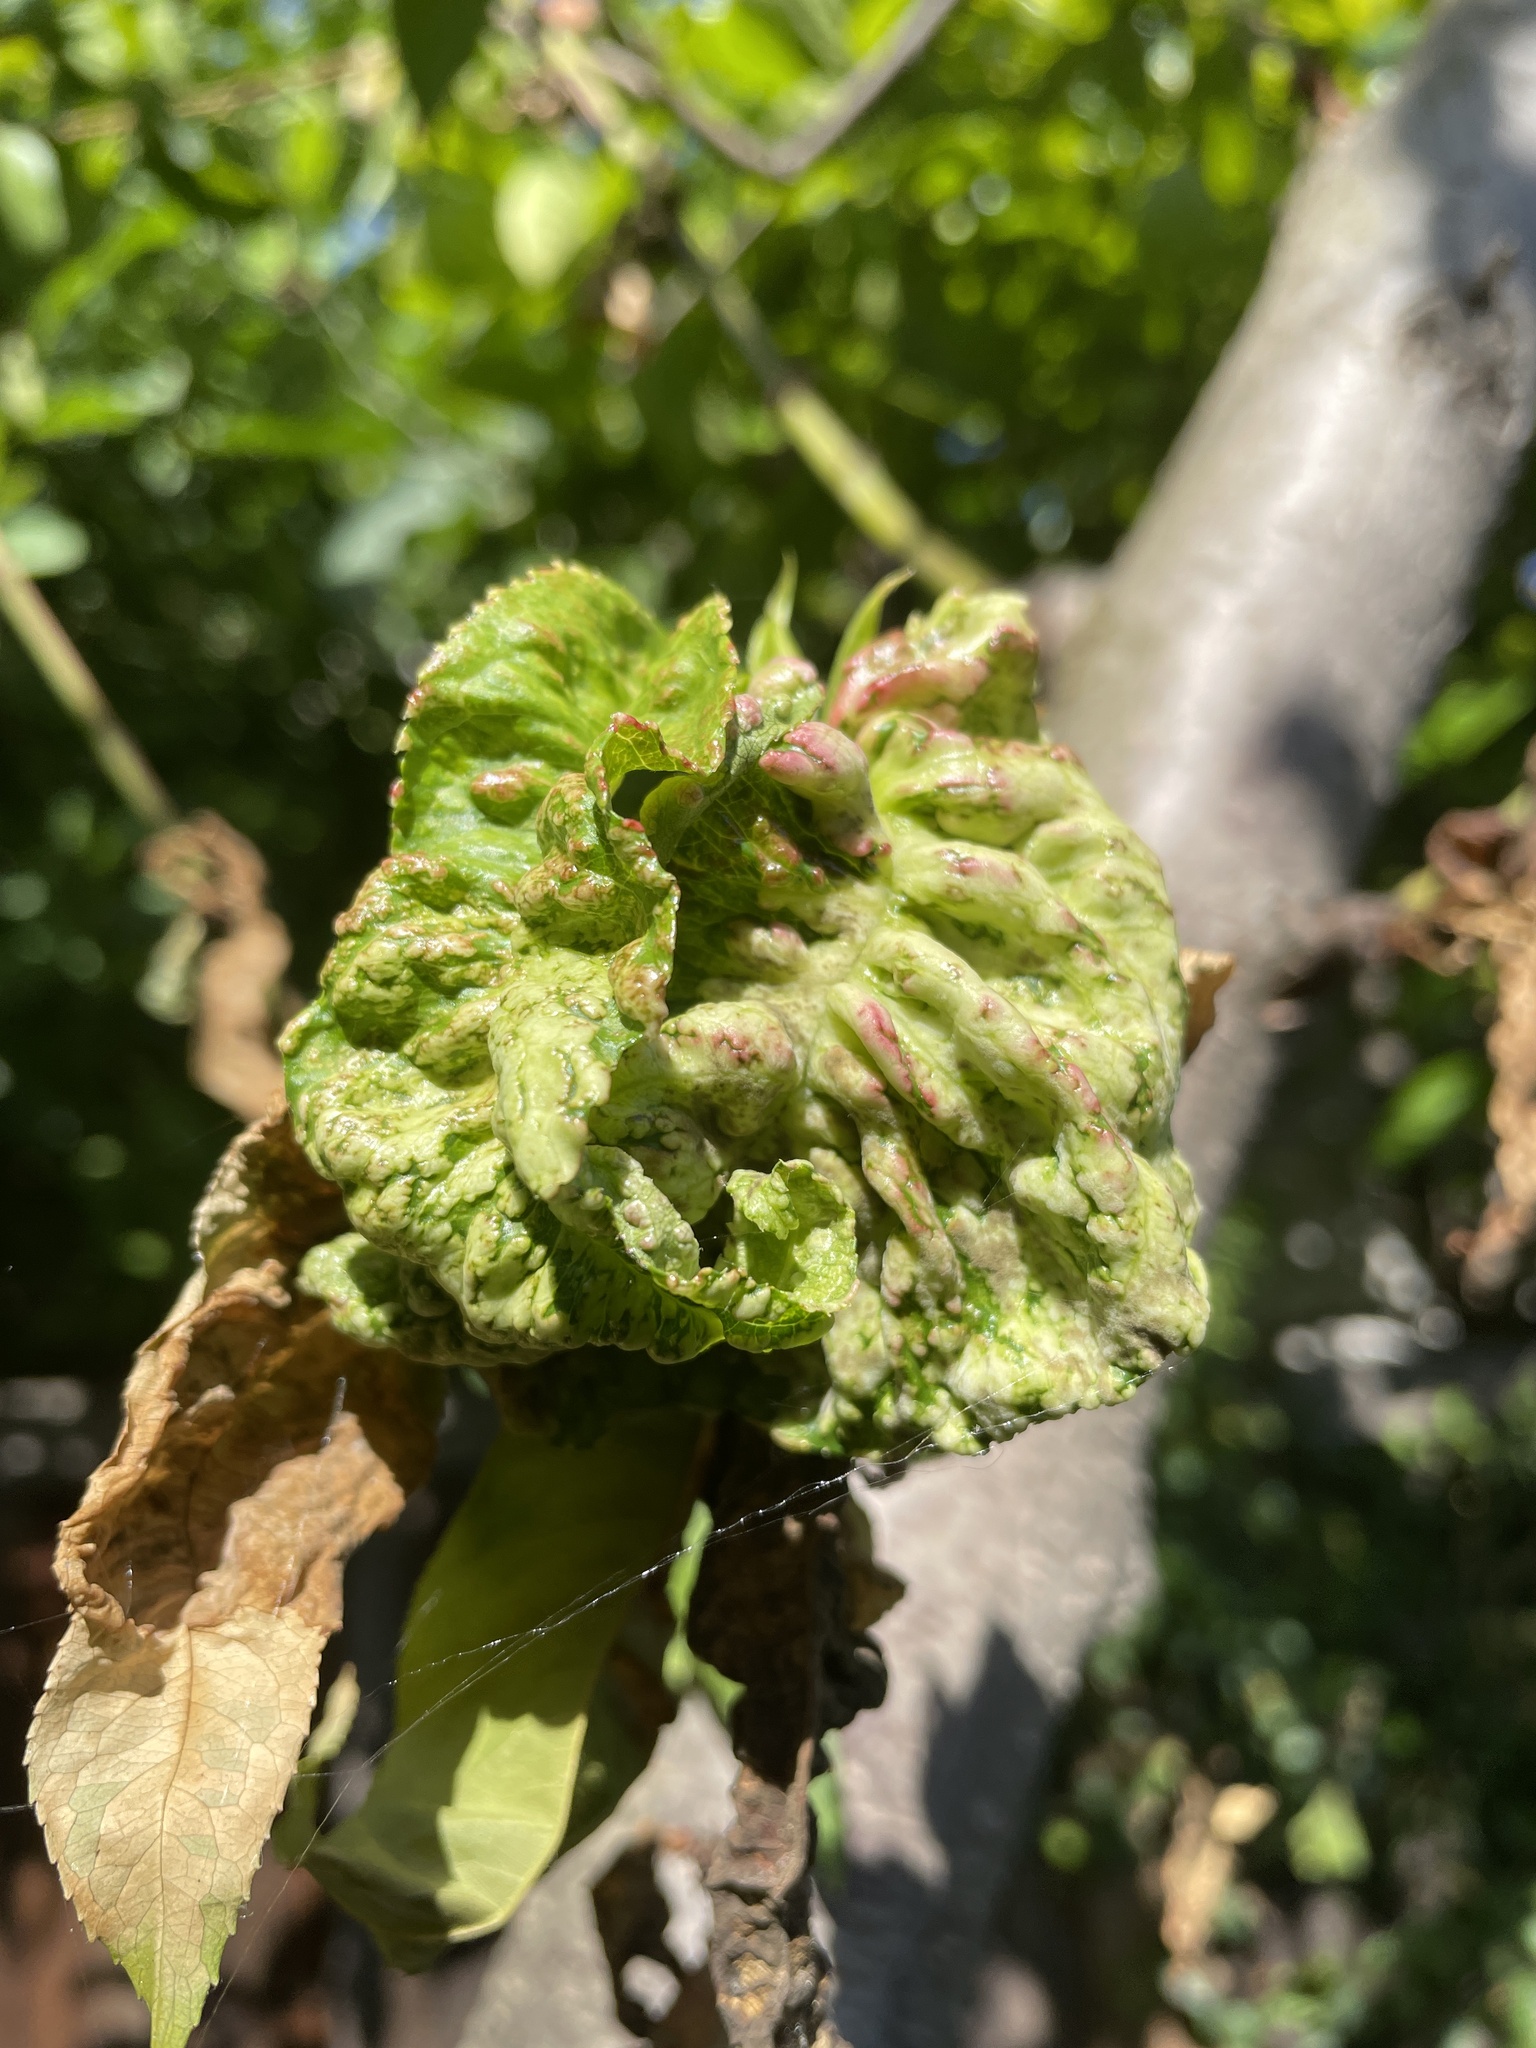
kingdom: Fungi
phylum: Ascomycota
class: Taphrinomycetes
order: Taphrinales
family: Taphrinaceae
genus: Taphrina
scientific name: Taphrina deformans
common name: Peach leaf curl
